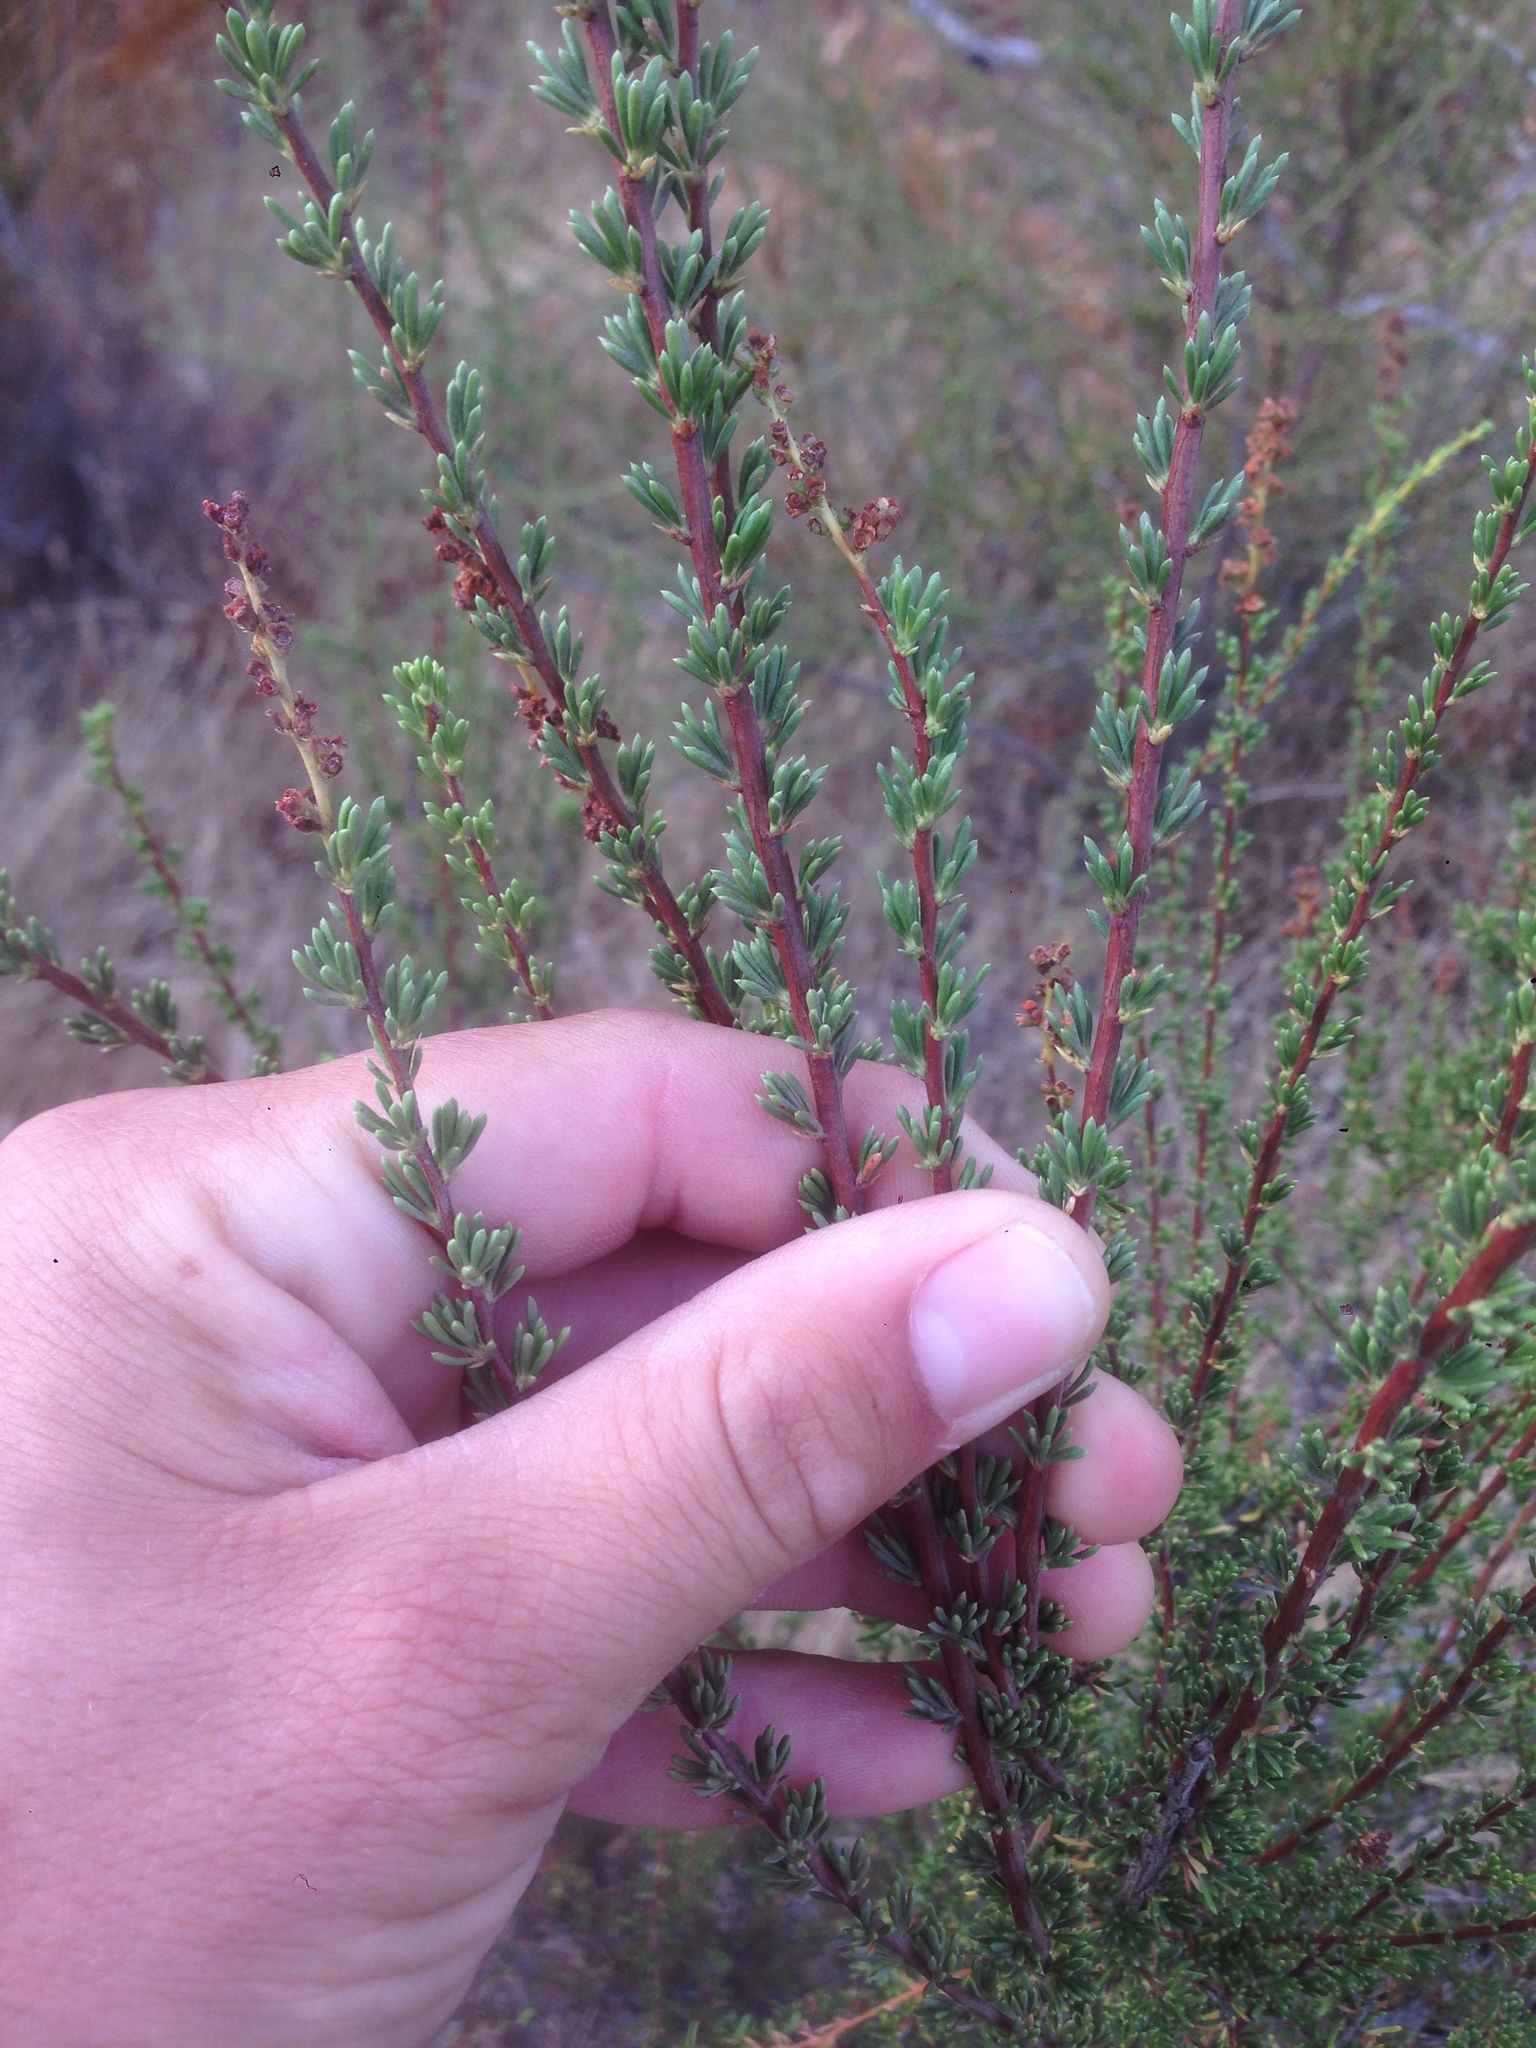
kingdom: Plantae
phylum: Tracheophyta
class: Magnoliopsida
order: Rosales
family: Rosaceae
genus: Adenostoma
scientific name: Adenostoma fasciculatum
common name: Chamise
